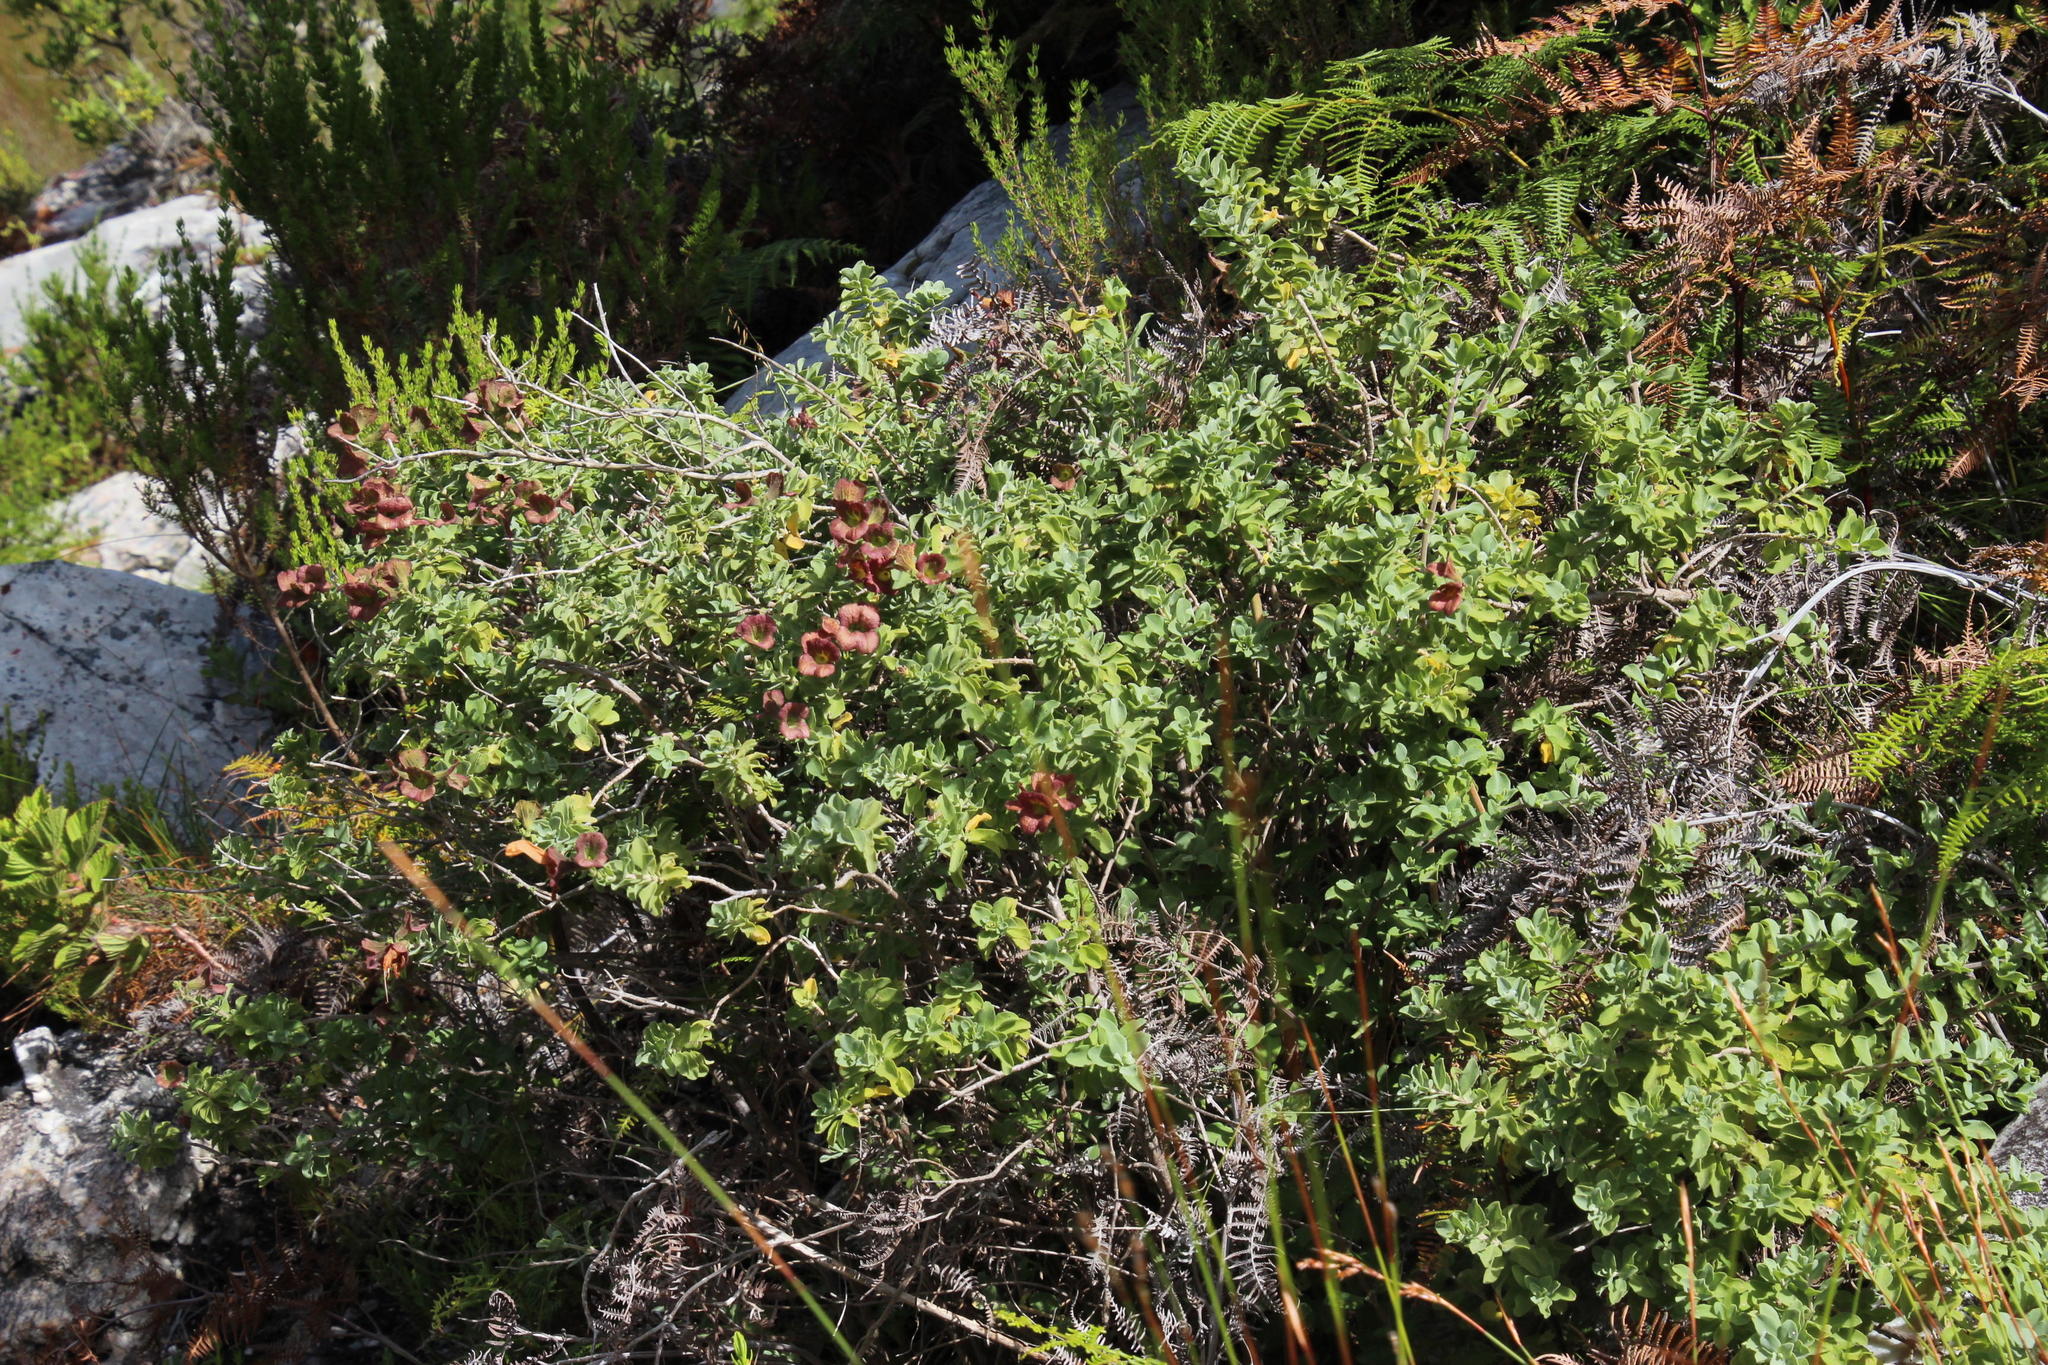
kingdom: Plantae
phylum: Tracheophyta
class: Magnoliopsida
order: Lamiales
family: Lamiaceae
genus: Salvia
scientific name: Salvia aurea
